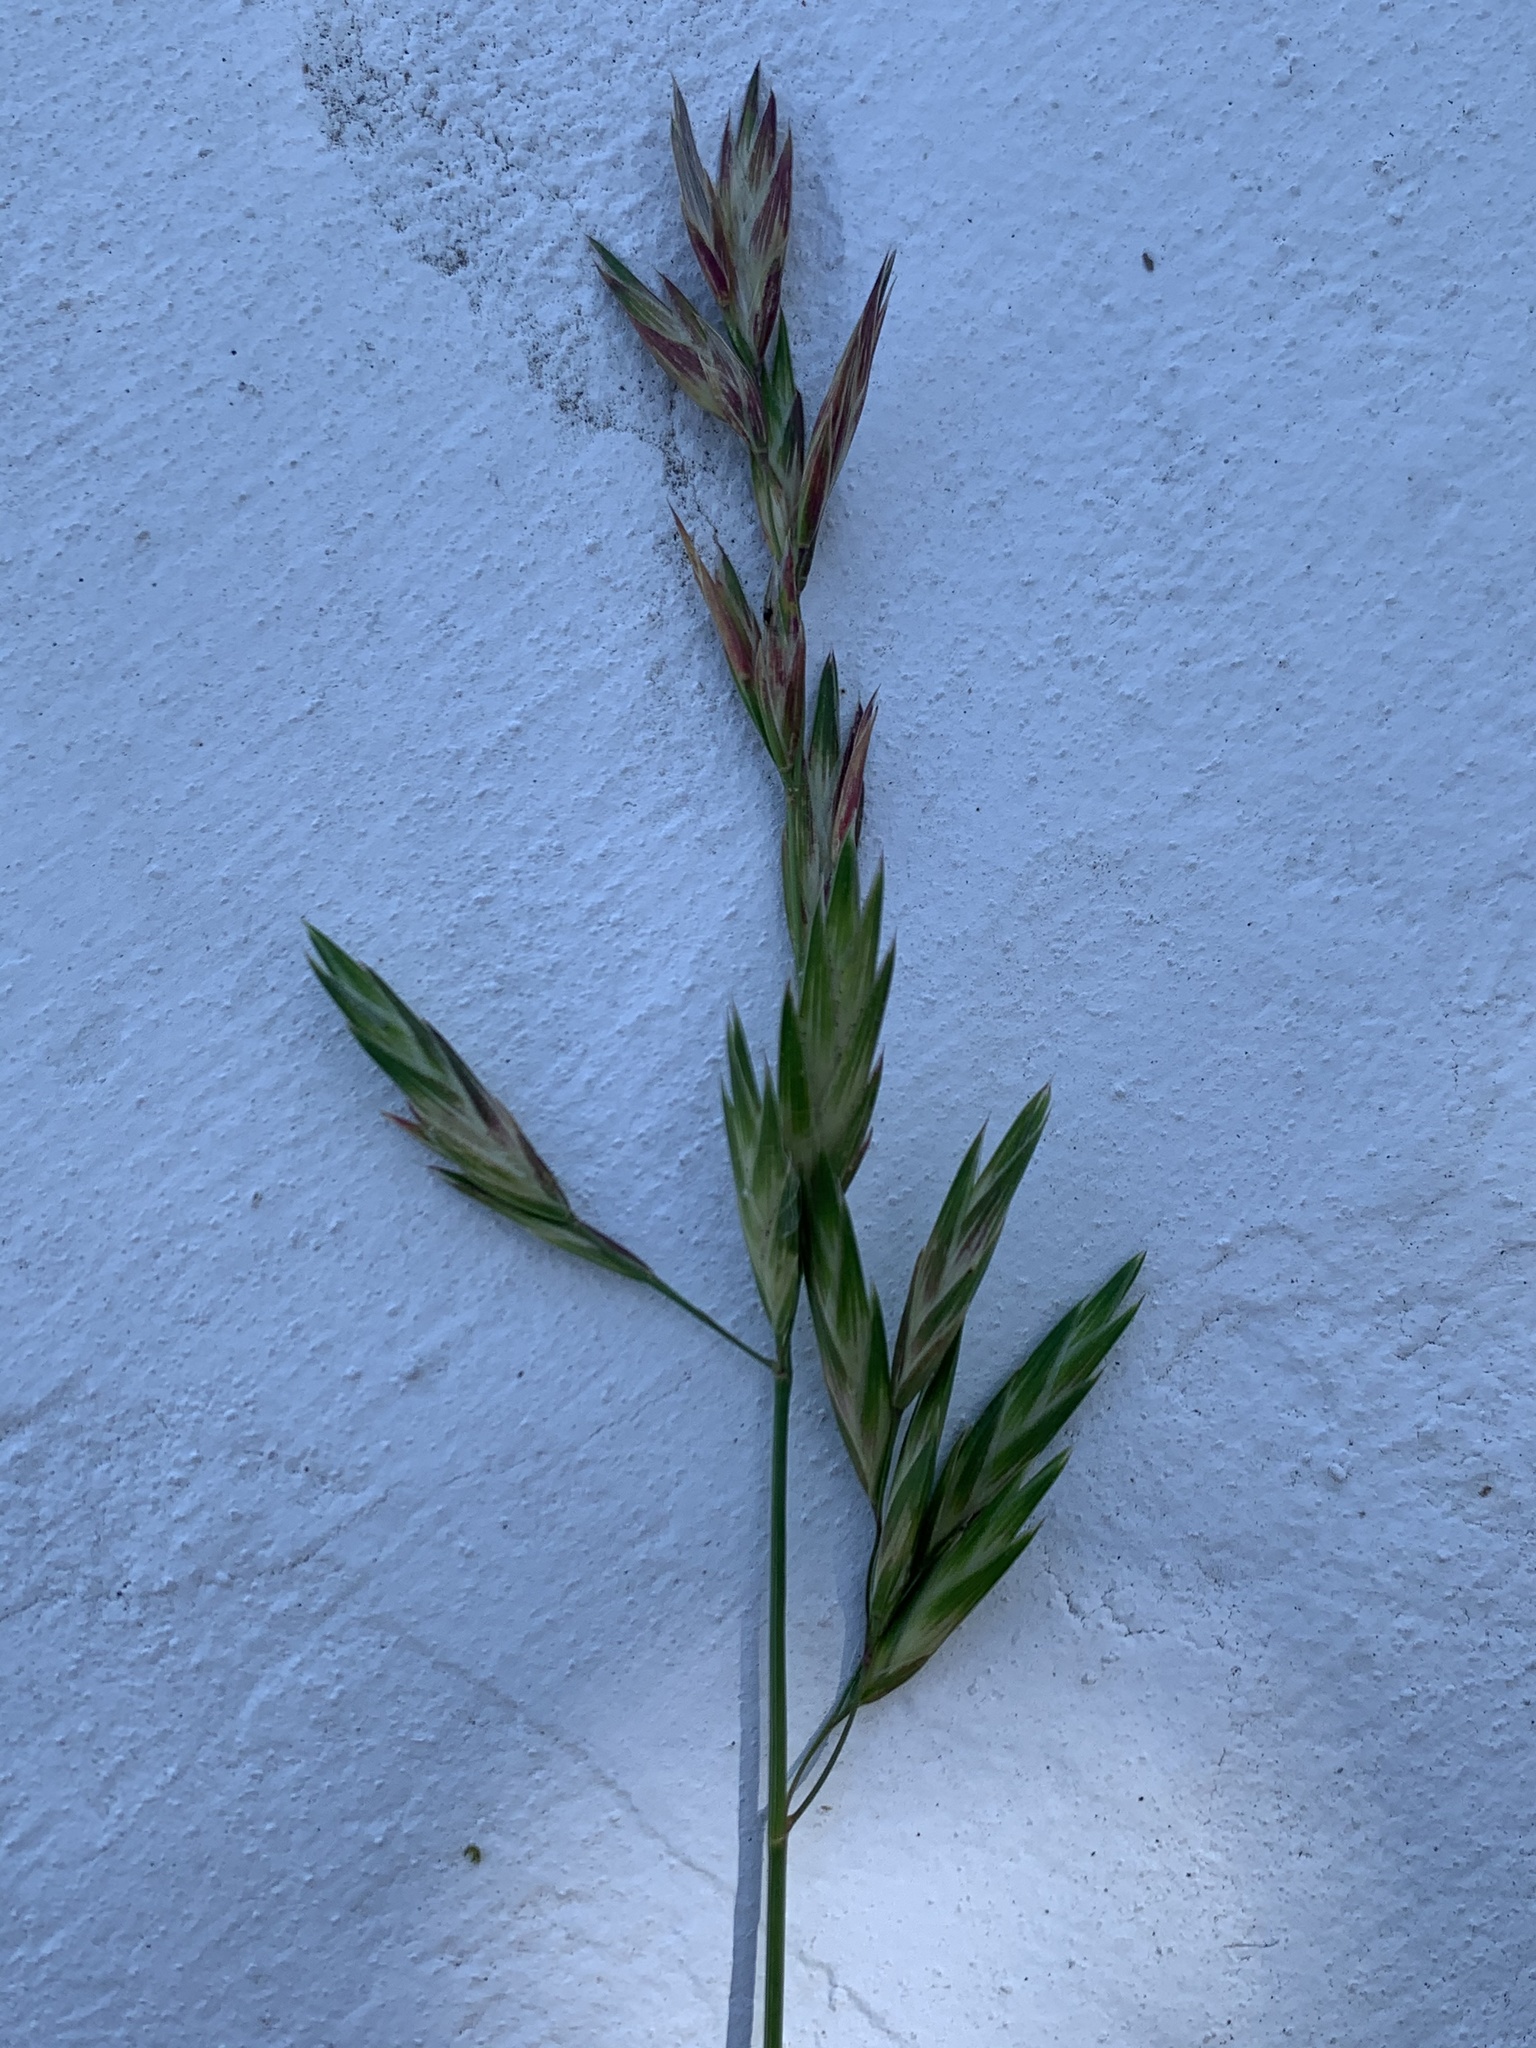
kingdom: Plantae
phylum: Tracheophyta
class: Liliopsida
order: Poales
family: Poaceae
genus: Bromus
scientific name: Bromus catharticus
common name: Rescuegrass
